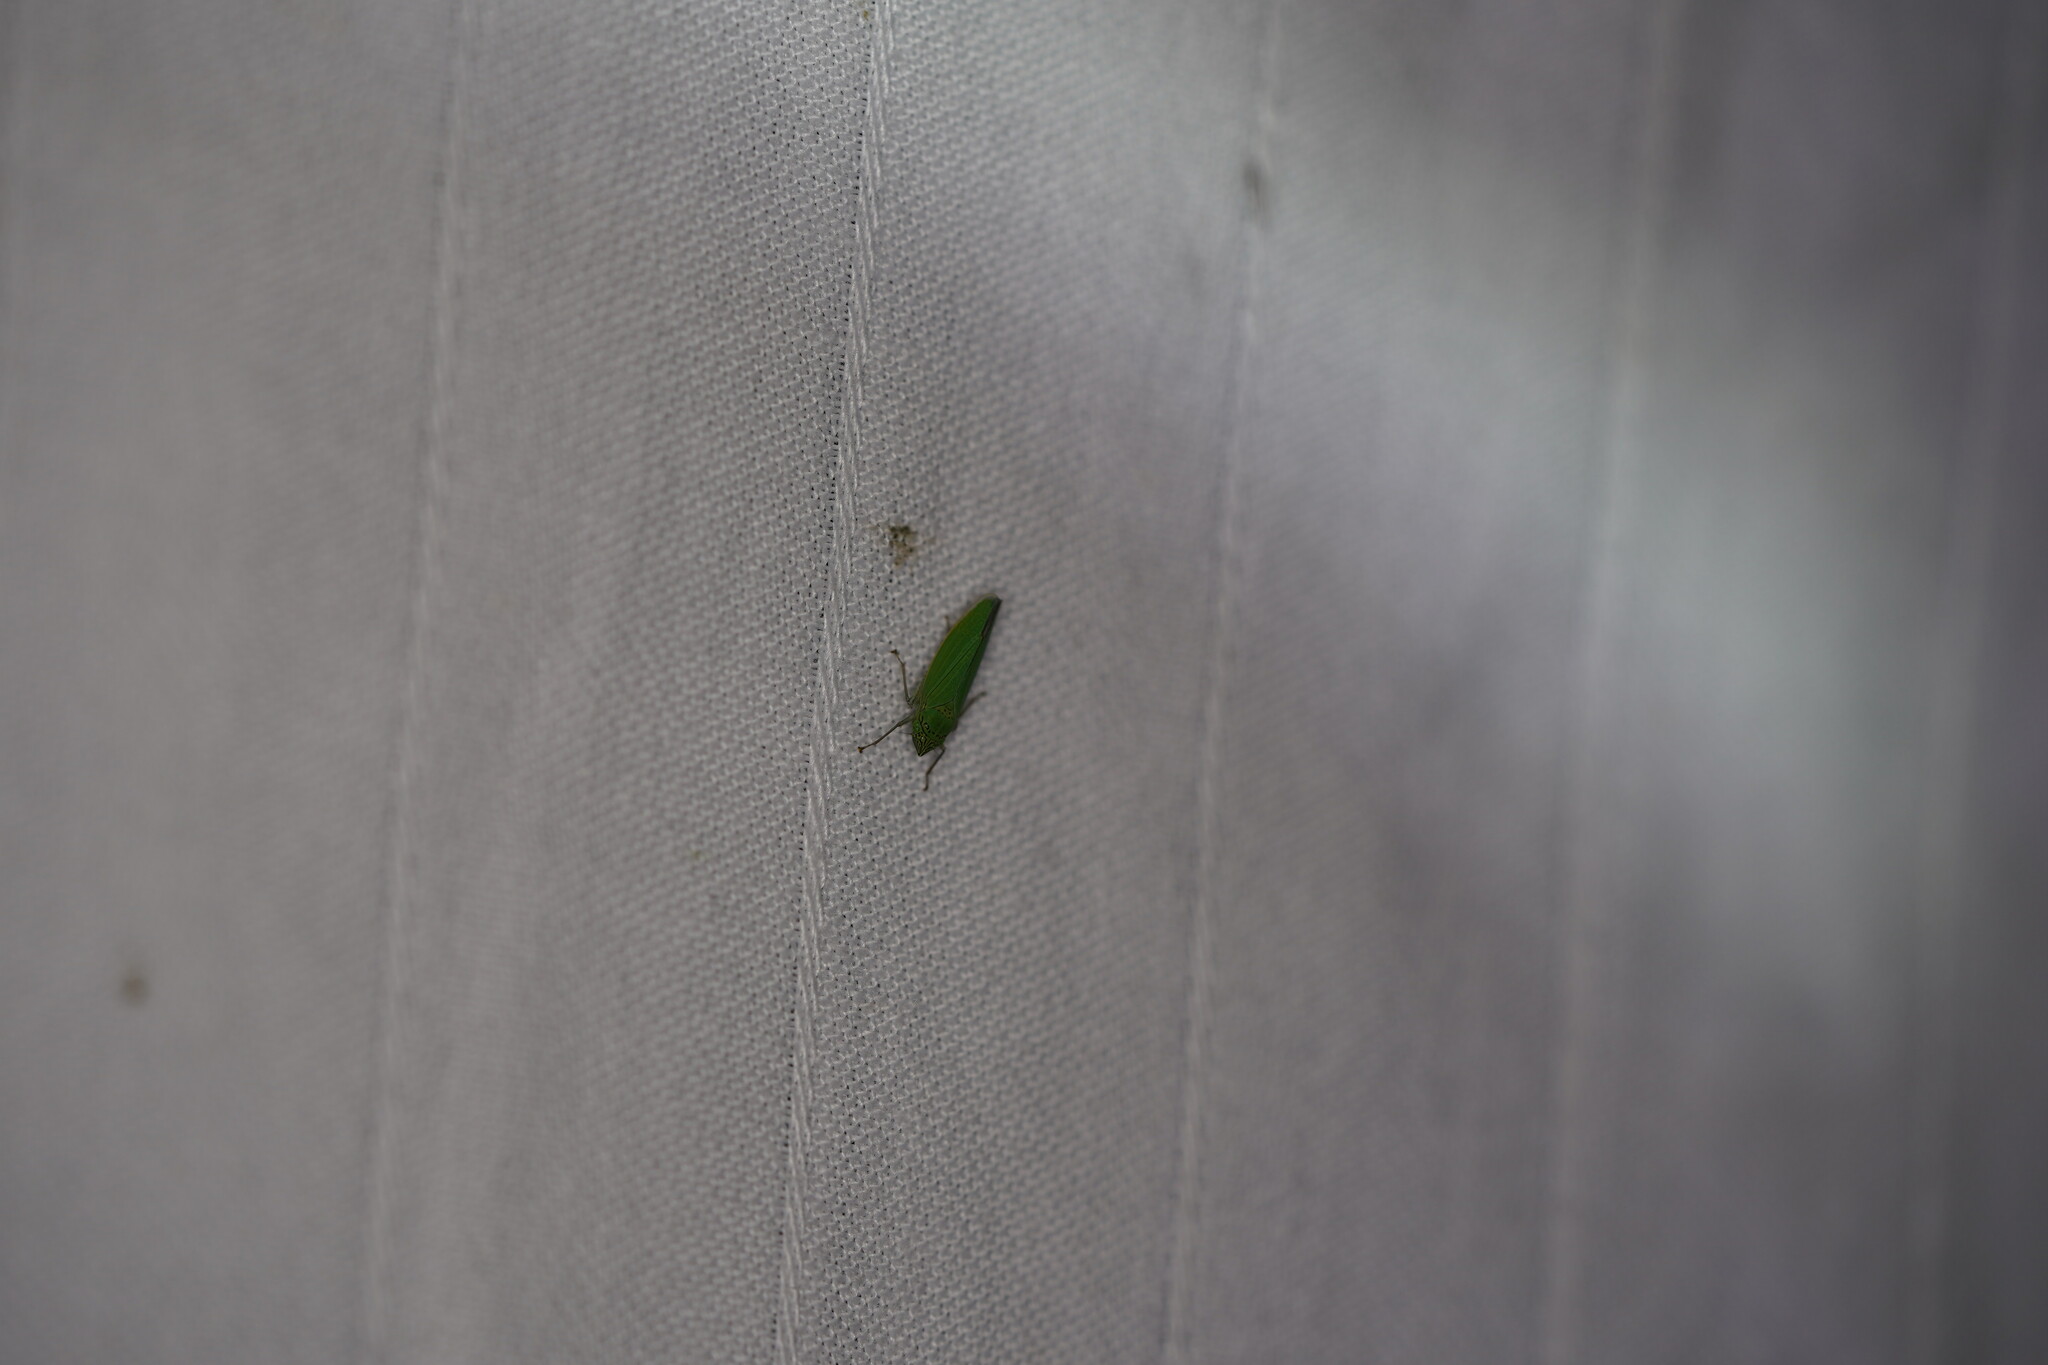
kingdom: Animalia
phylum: Arthropoda
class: Insecta
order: Hemiptera
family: Cicadellidae
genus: Draeculacephala
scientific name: Draeculacephala inscripta
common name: Leafhopper
